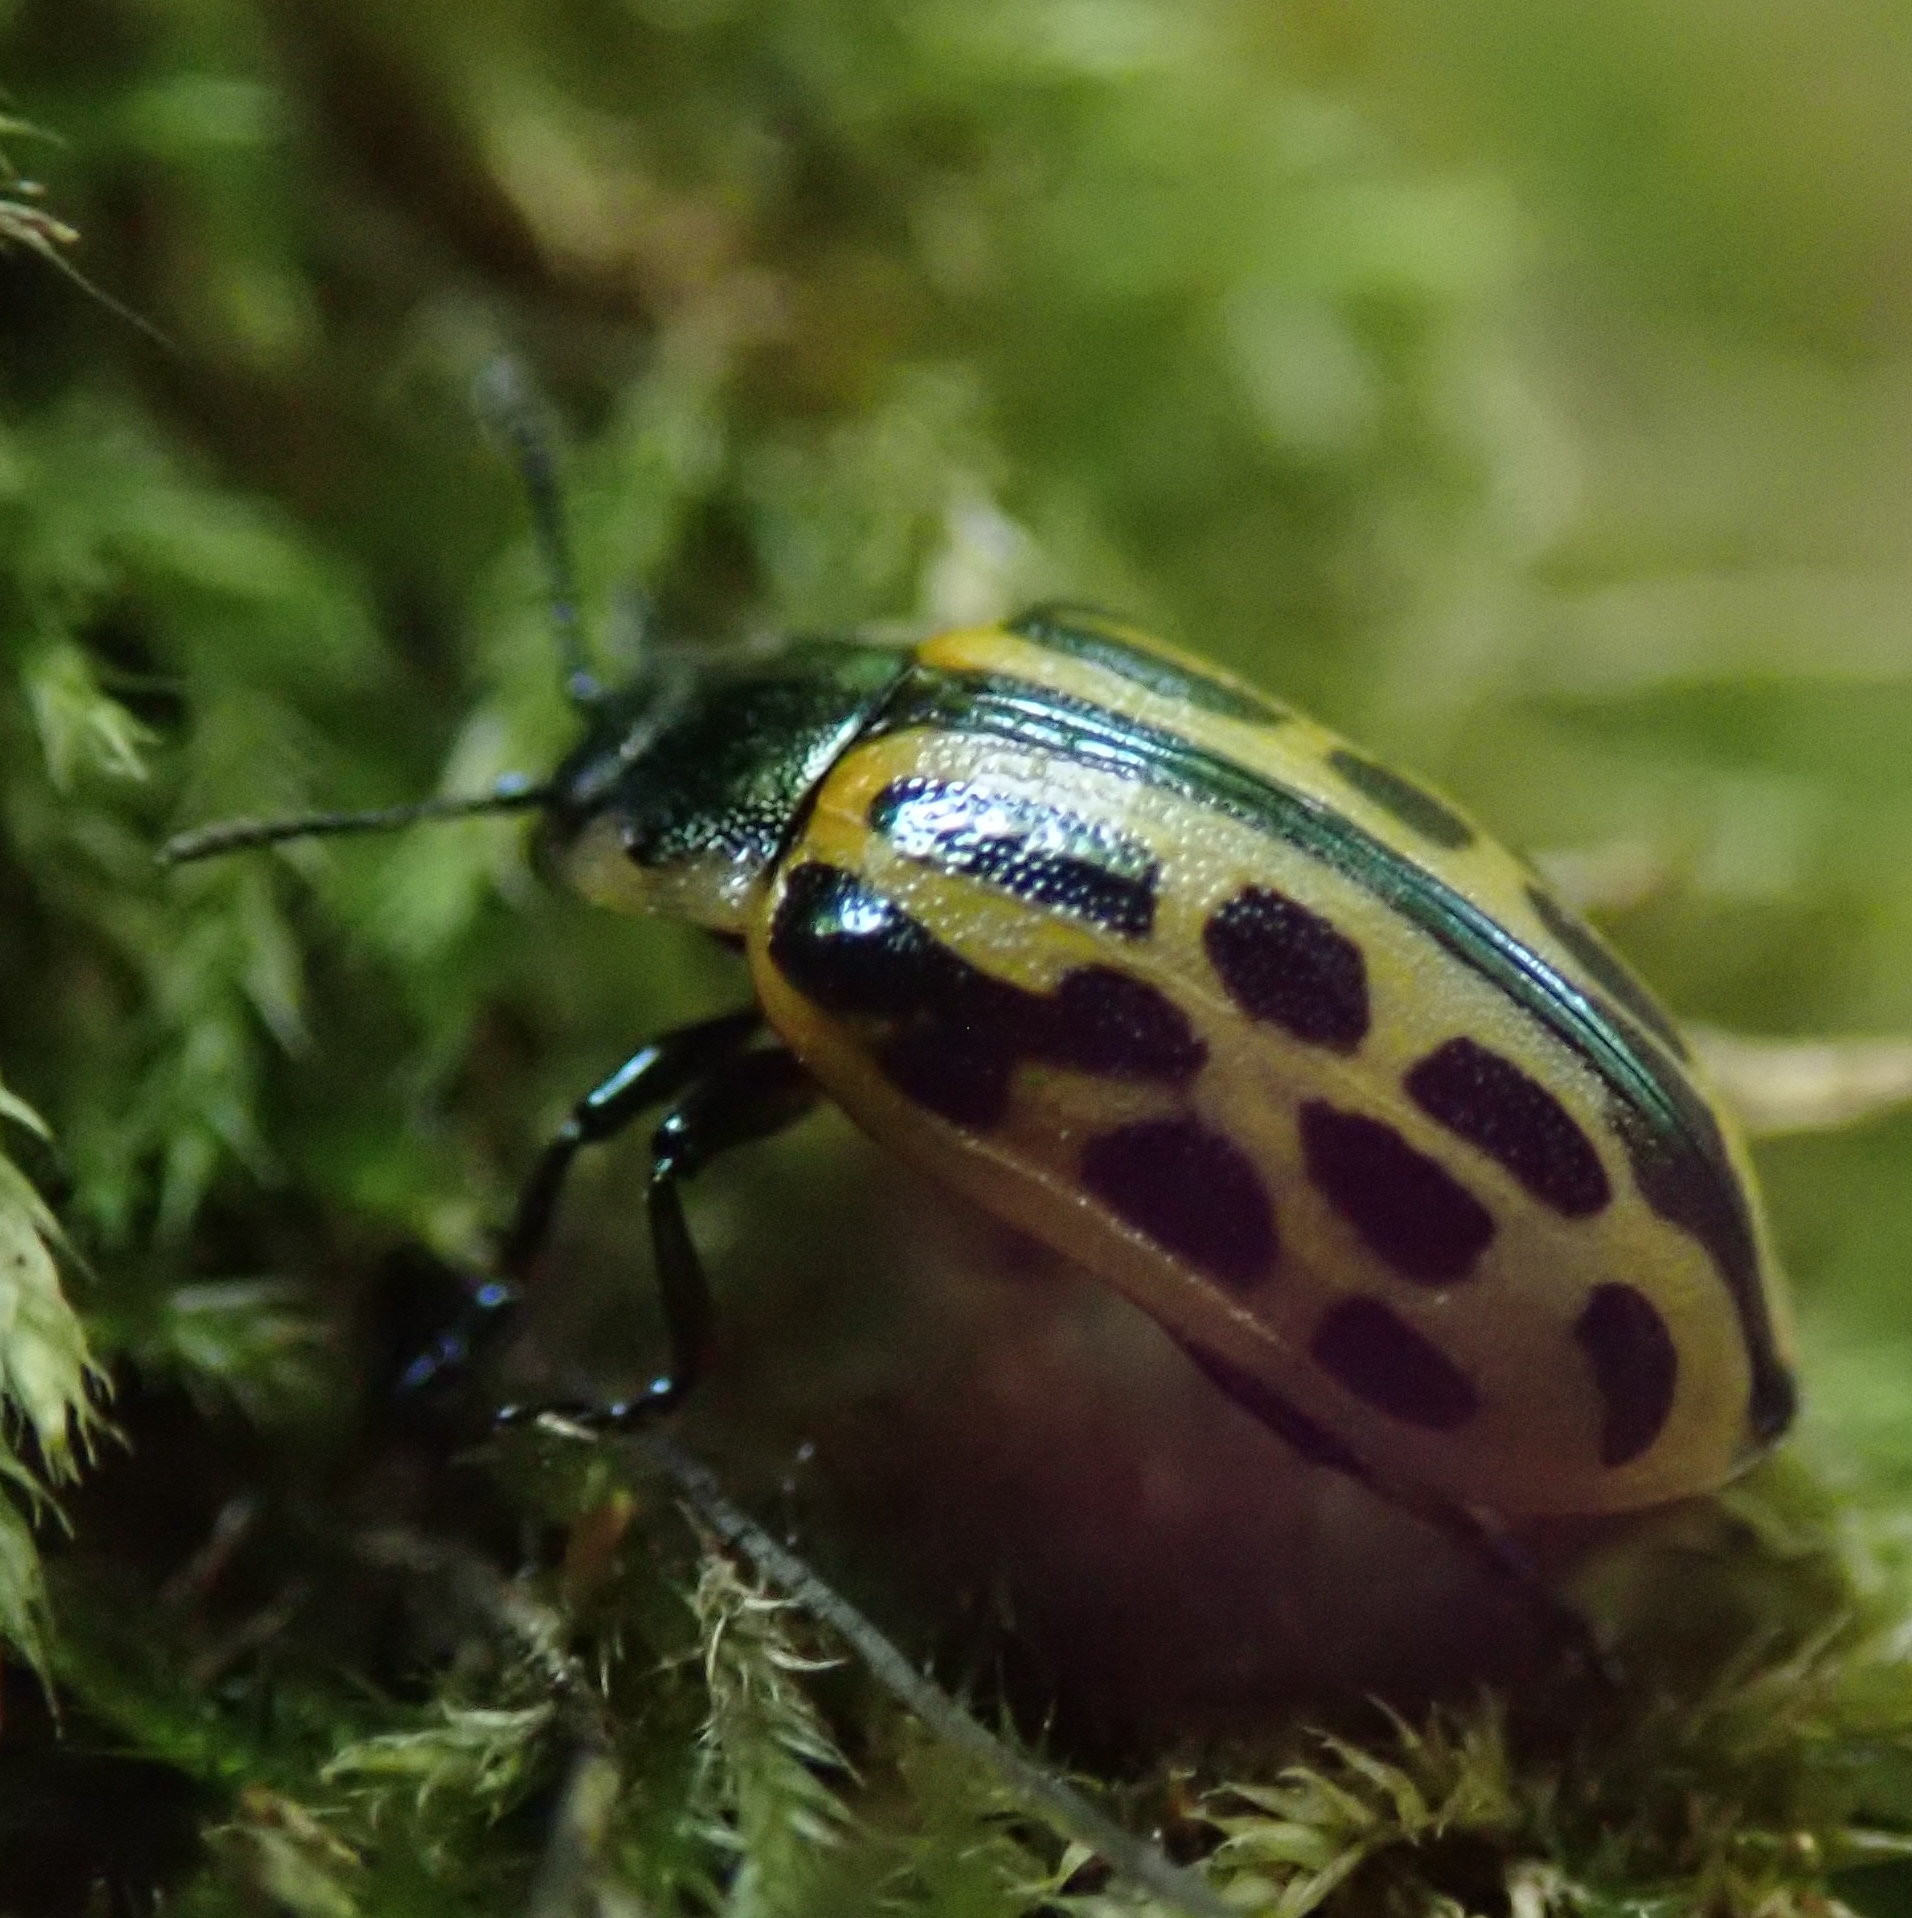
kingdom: Animalia
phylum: Arthropoda
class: Insecta
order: Coleoptera
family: Chrysomelidae
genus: Chrysomela
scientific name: Chrysomela vigintipunctata
